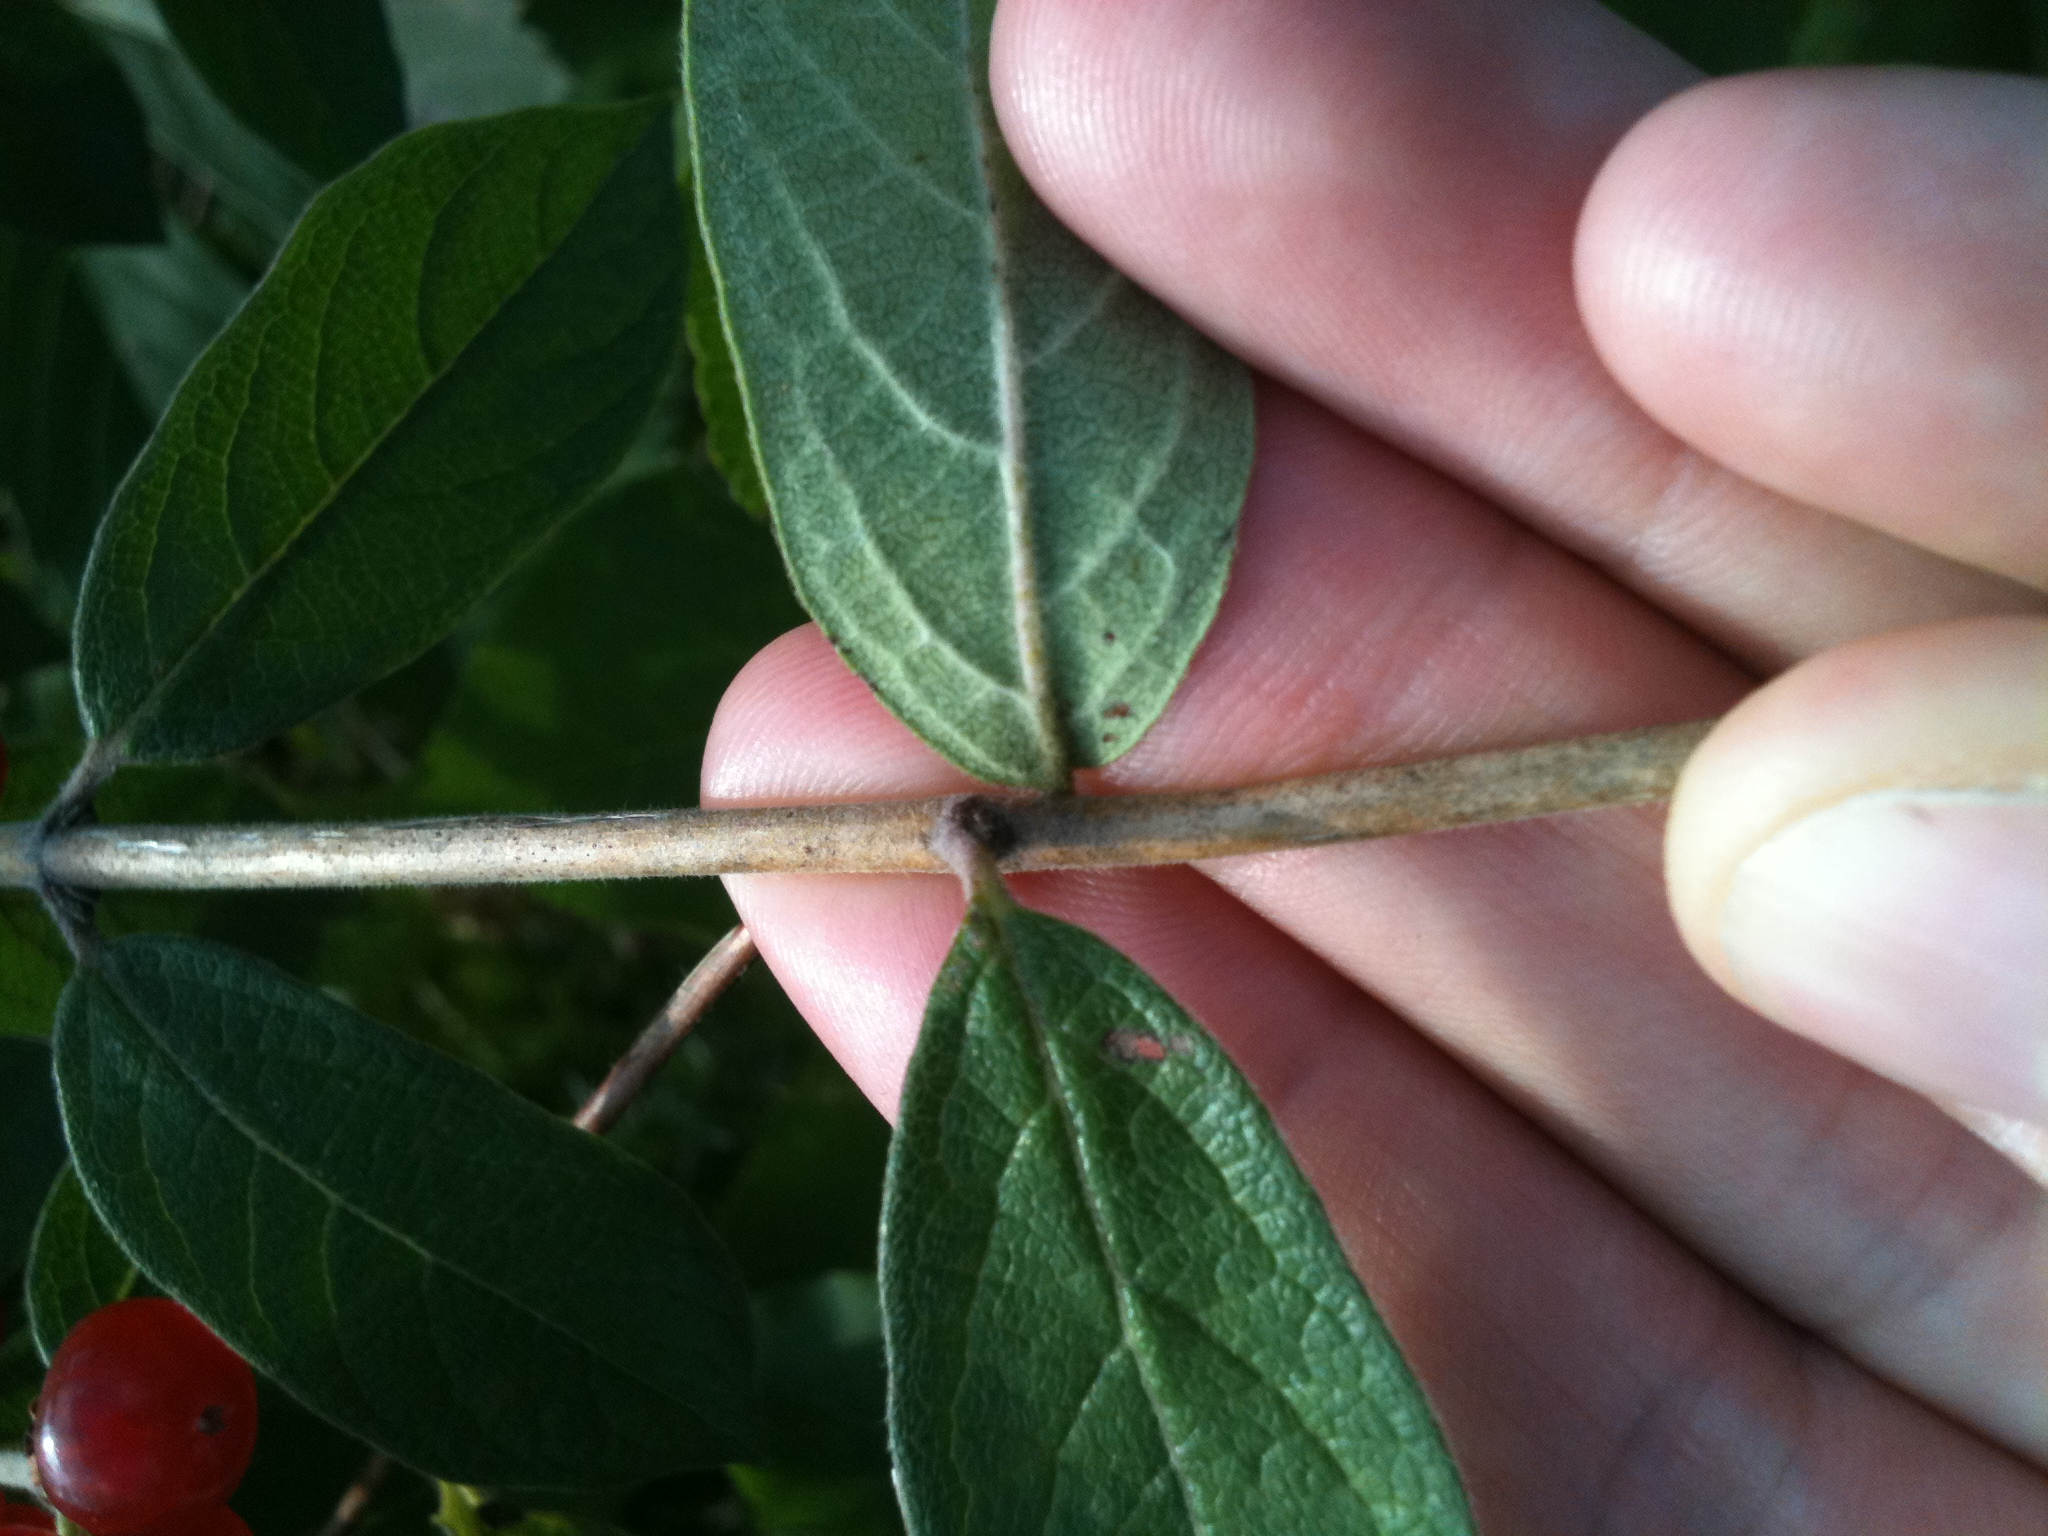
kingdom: Plantae
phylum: Tracheophyta
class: Magnoliopsida
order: Dipsacales
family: Caprifoliaceae
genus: Lonicera
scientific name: Lonicera morrowii
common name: Morrow's honeysuckle
